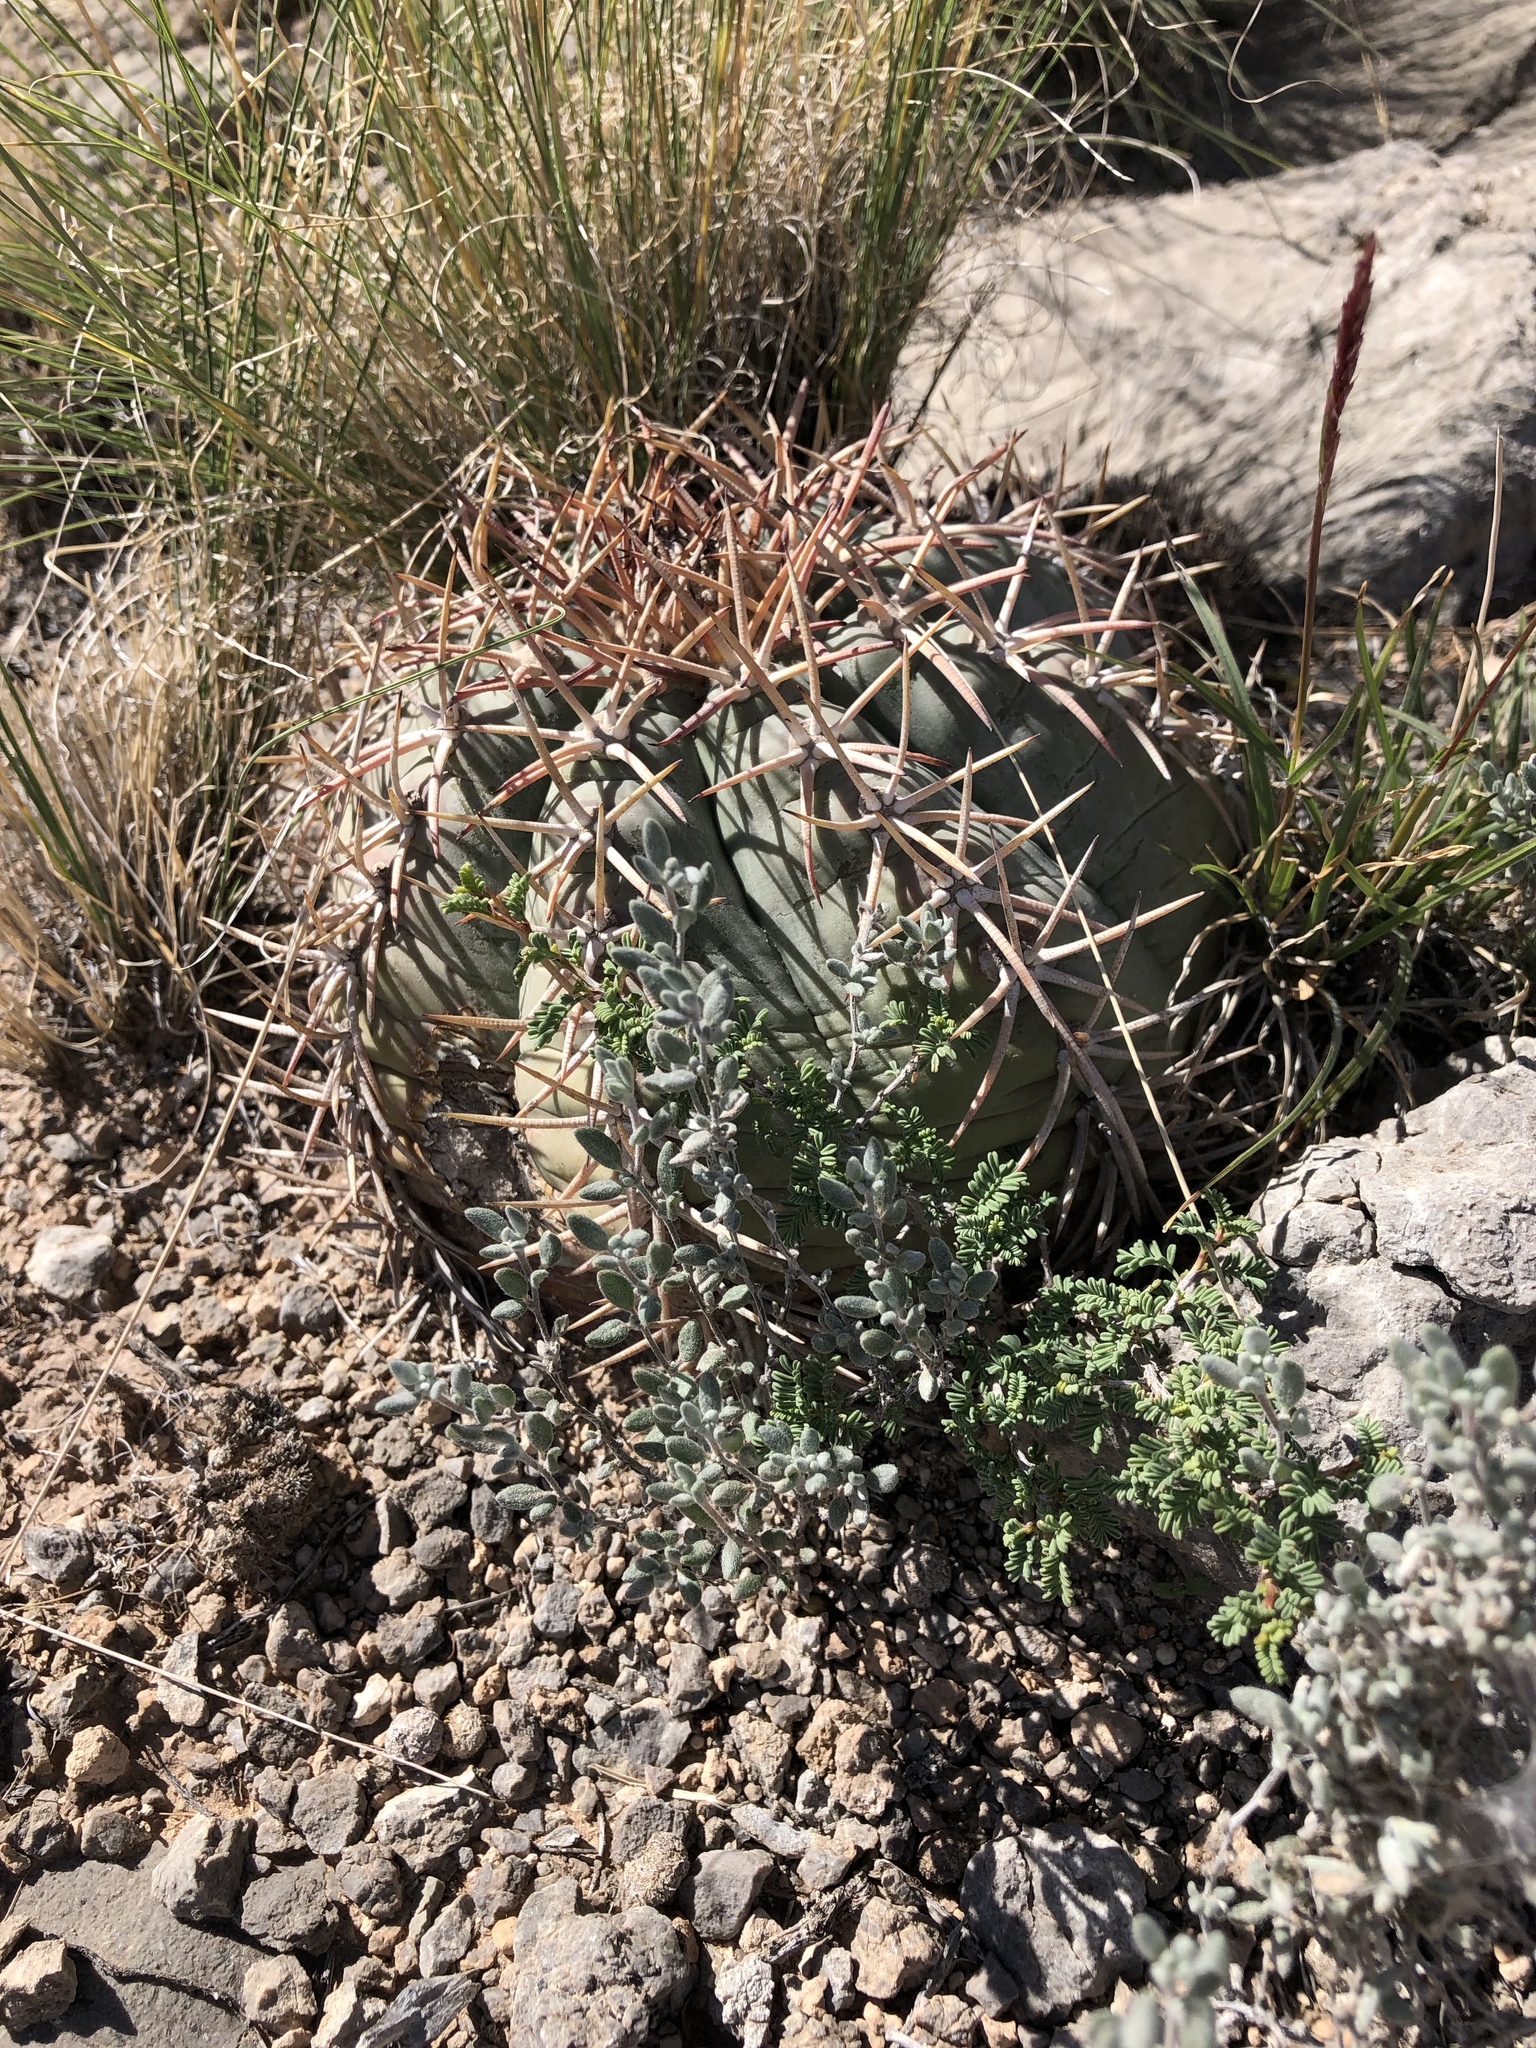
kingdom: Plantae
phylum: Tracheophyta
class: Magnoliopsida
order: Caryophyllales
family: Cactaceae
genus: Echinocactus
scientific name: Echinocactus horizonthalonius
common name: Devilshead
